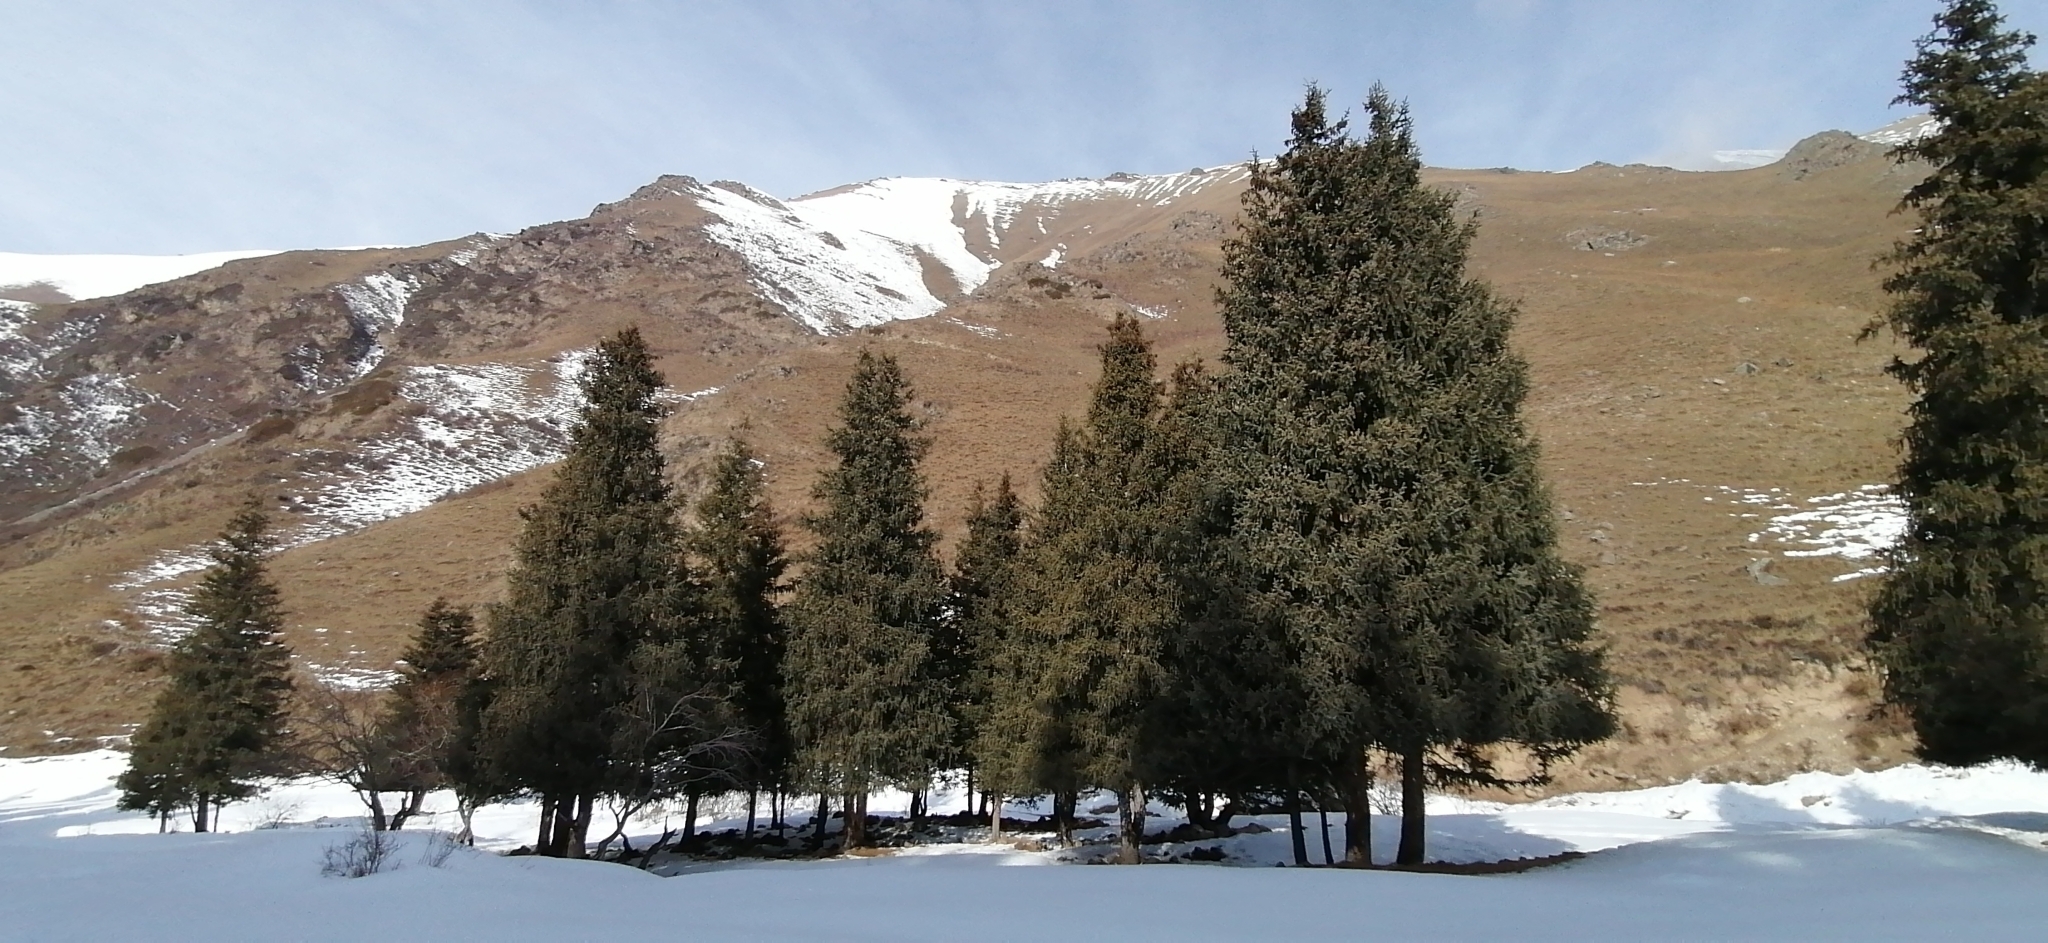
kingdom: Plantae
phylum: Tracheophyta
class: Pinopsida
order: Pinales
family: Pinaceae
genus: Picea
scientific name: Picea schrenkiana
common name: Asian spruce
